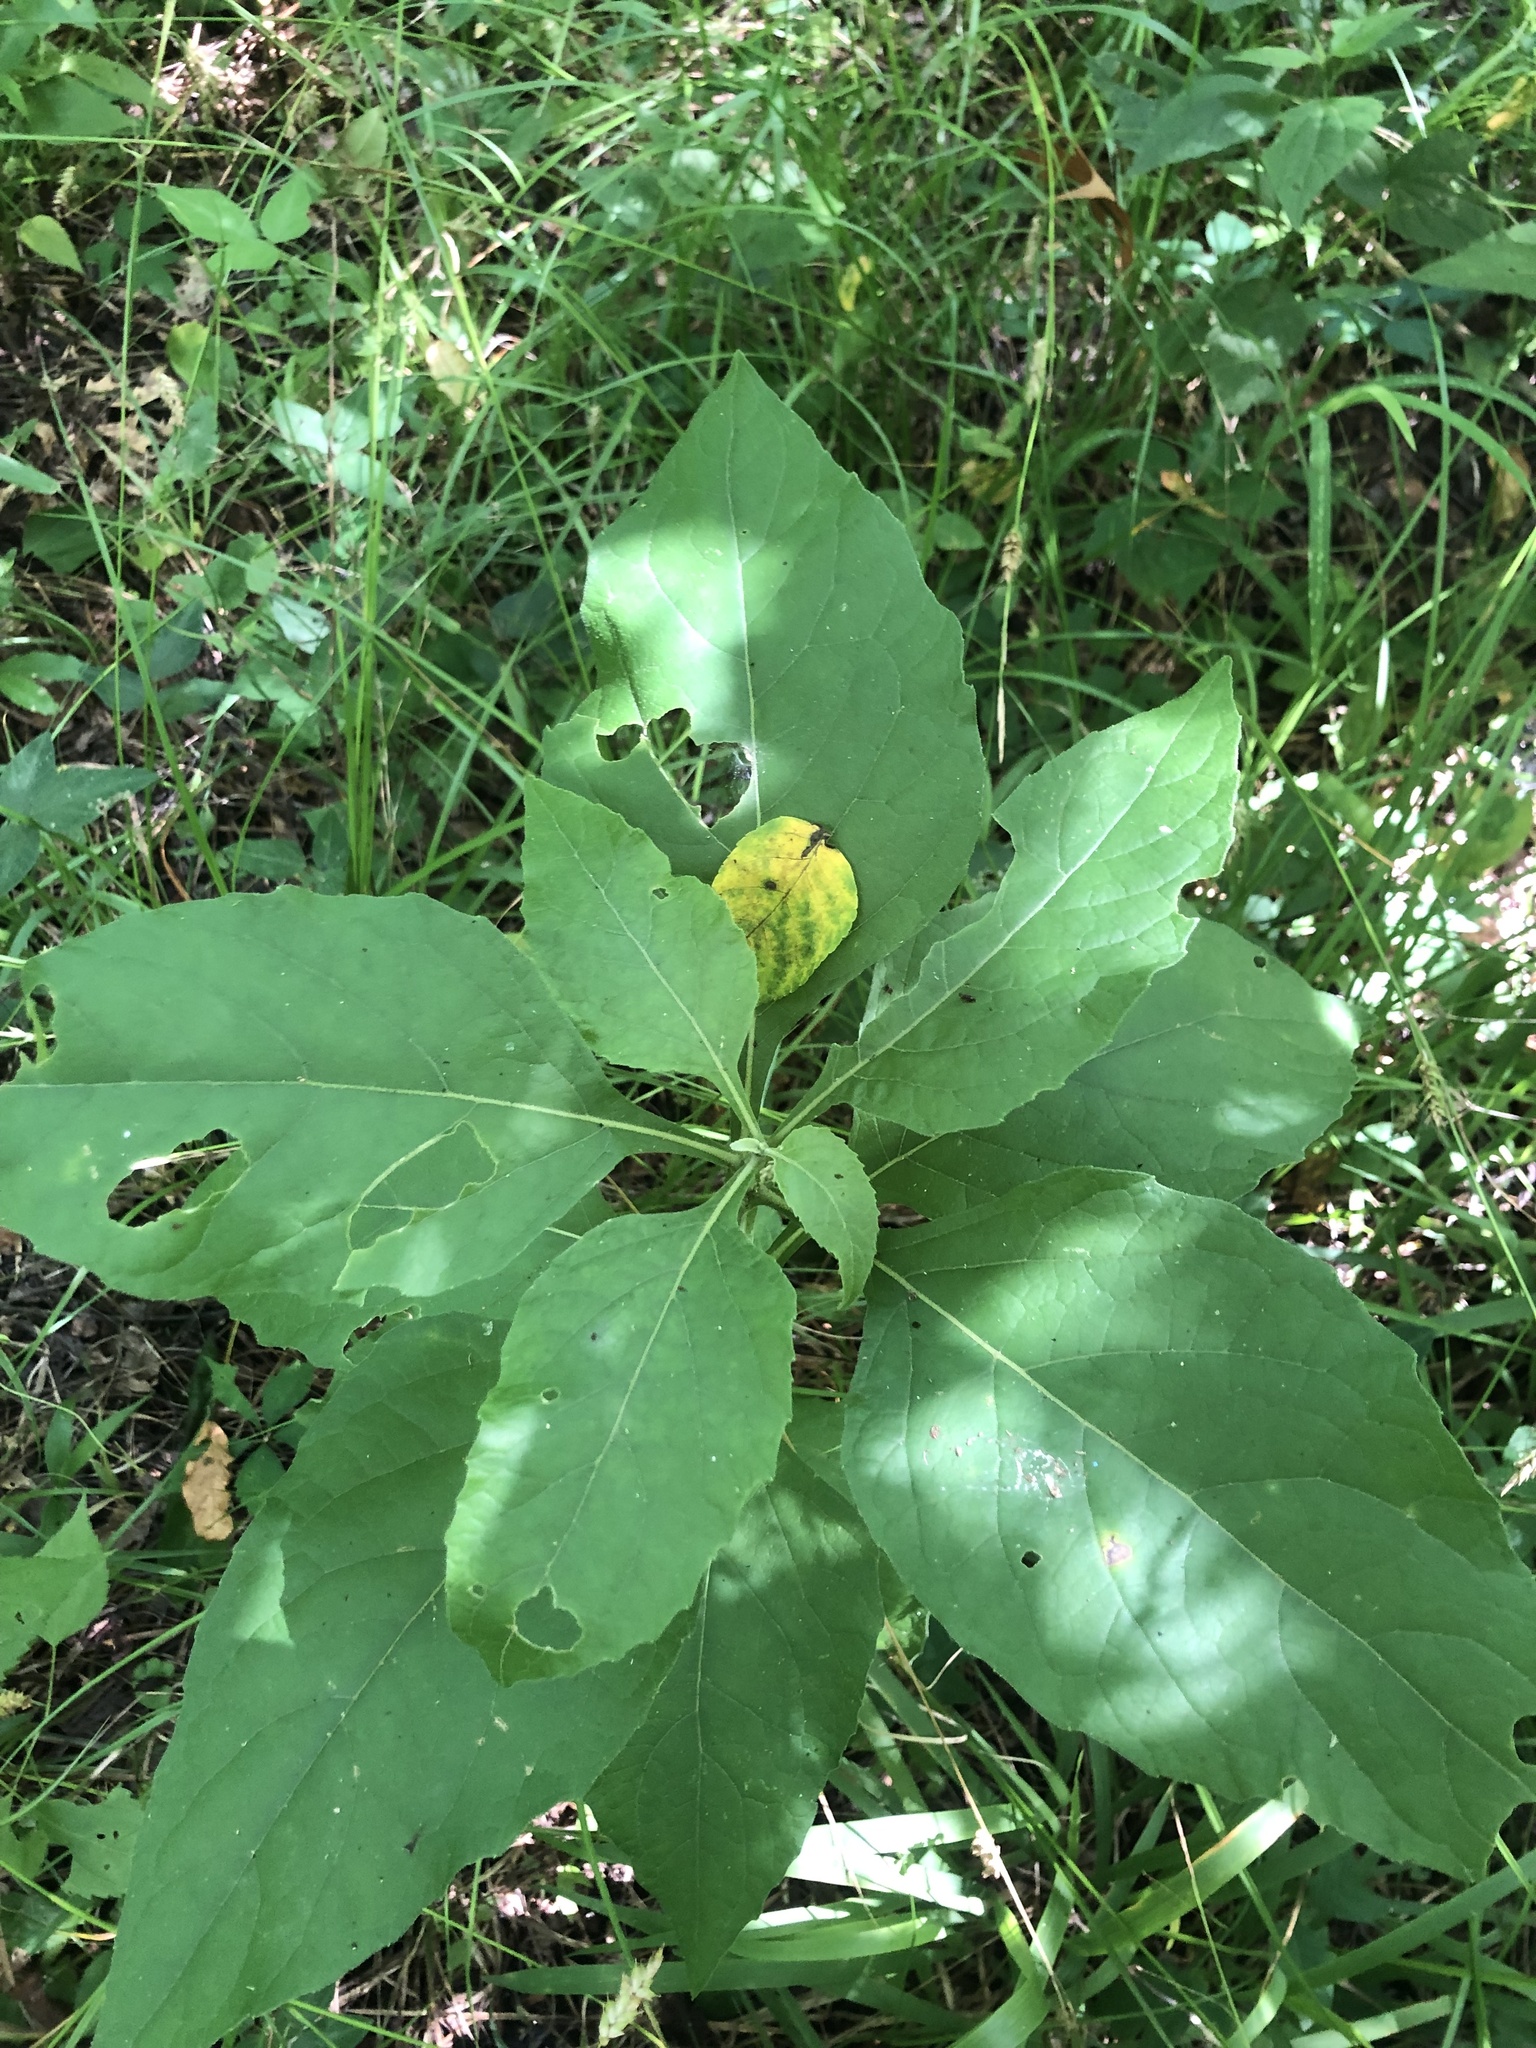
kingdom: Plantae
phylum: Tracheophyta
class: Magnoliopsida
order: Asterales
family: Asteraceae
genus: Verbesina
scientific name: Verbesina virginica
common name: Frostweed
